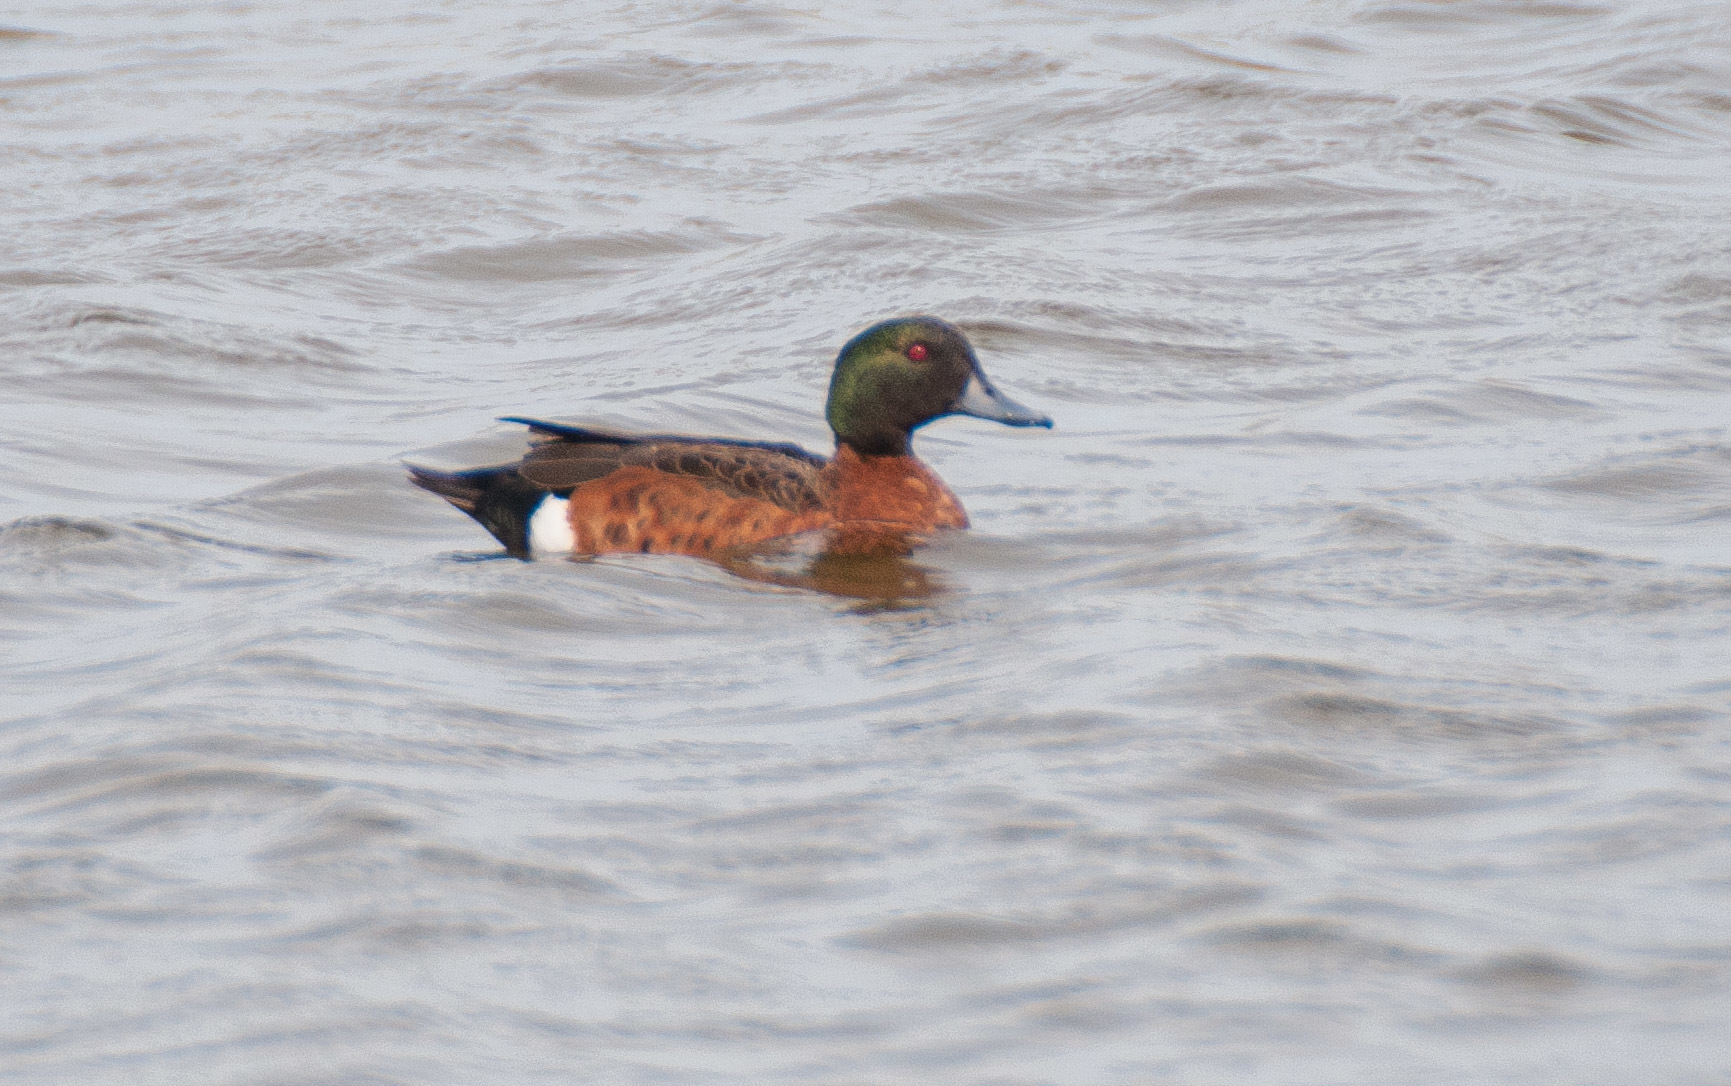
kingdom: Animalia
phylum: Chordata
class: Aves
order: Anseriformes
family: Anatidae
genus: Anas
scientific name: Anas castanea
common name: Chestnut teal
